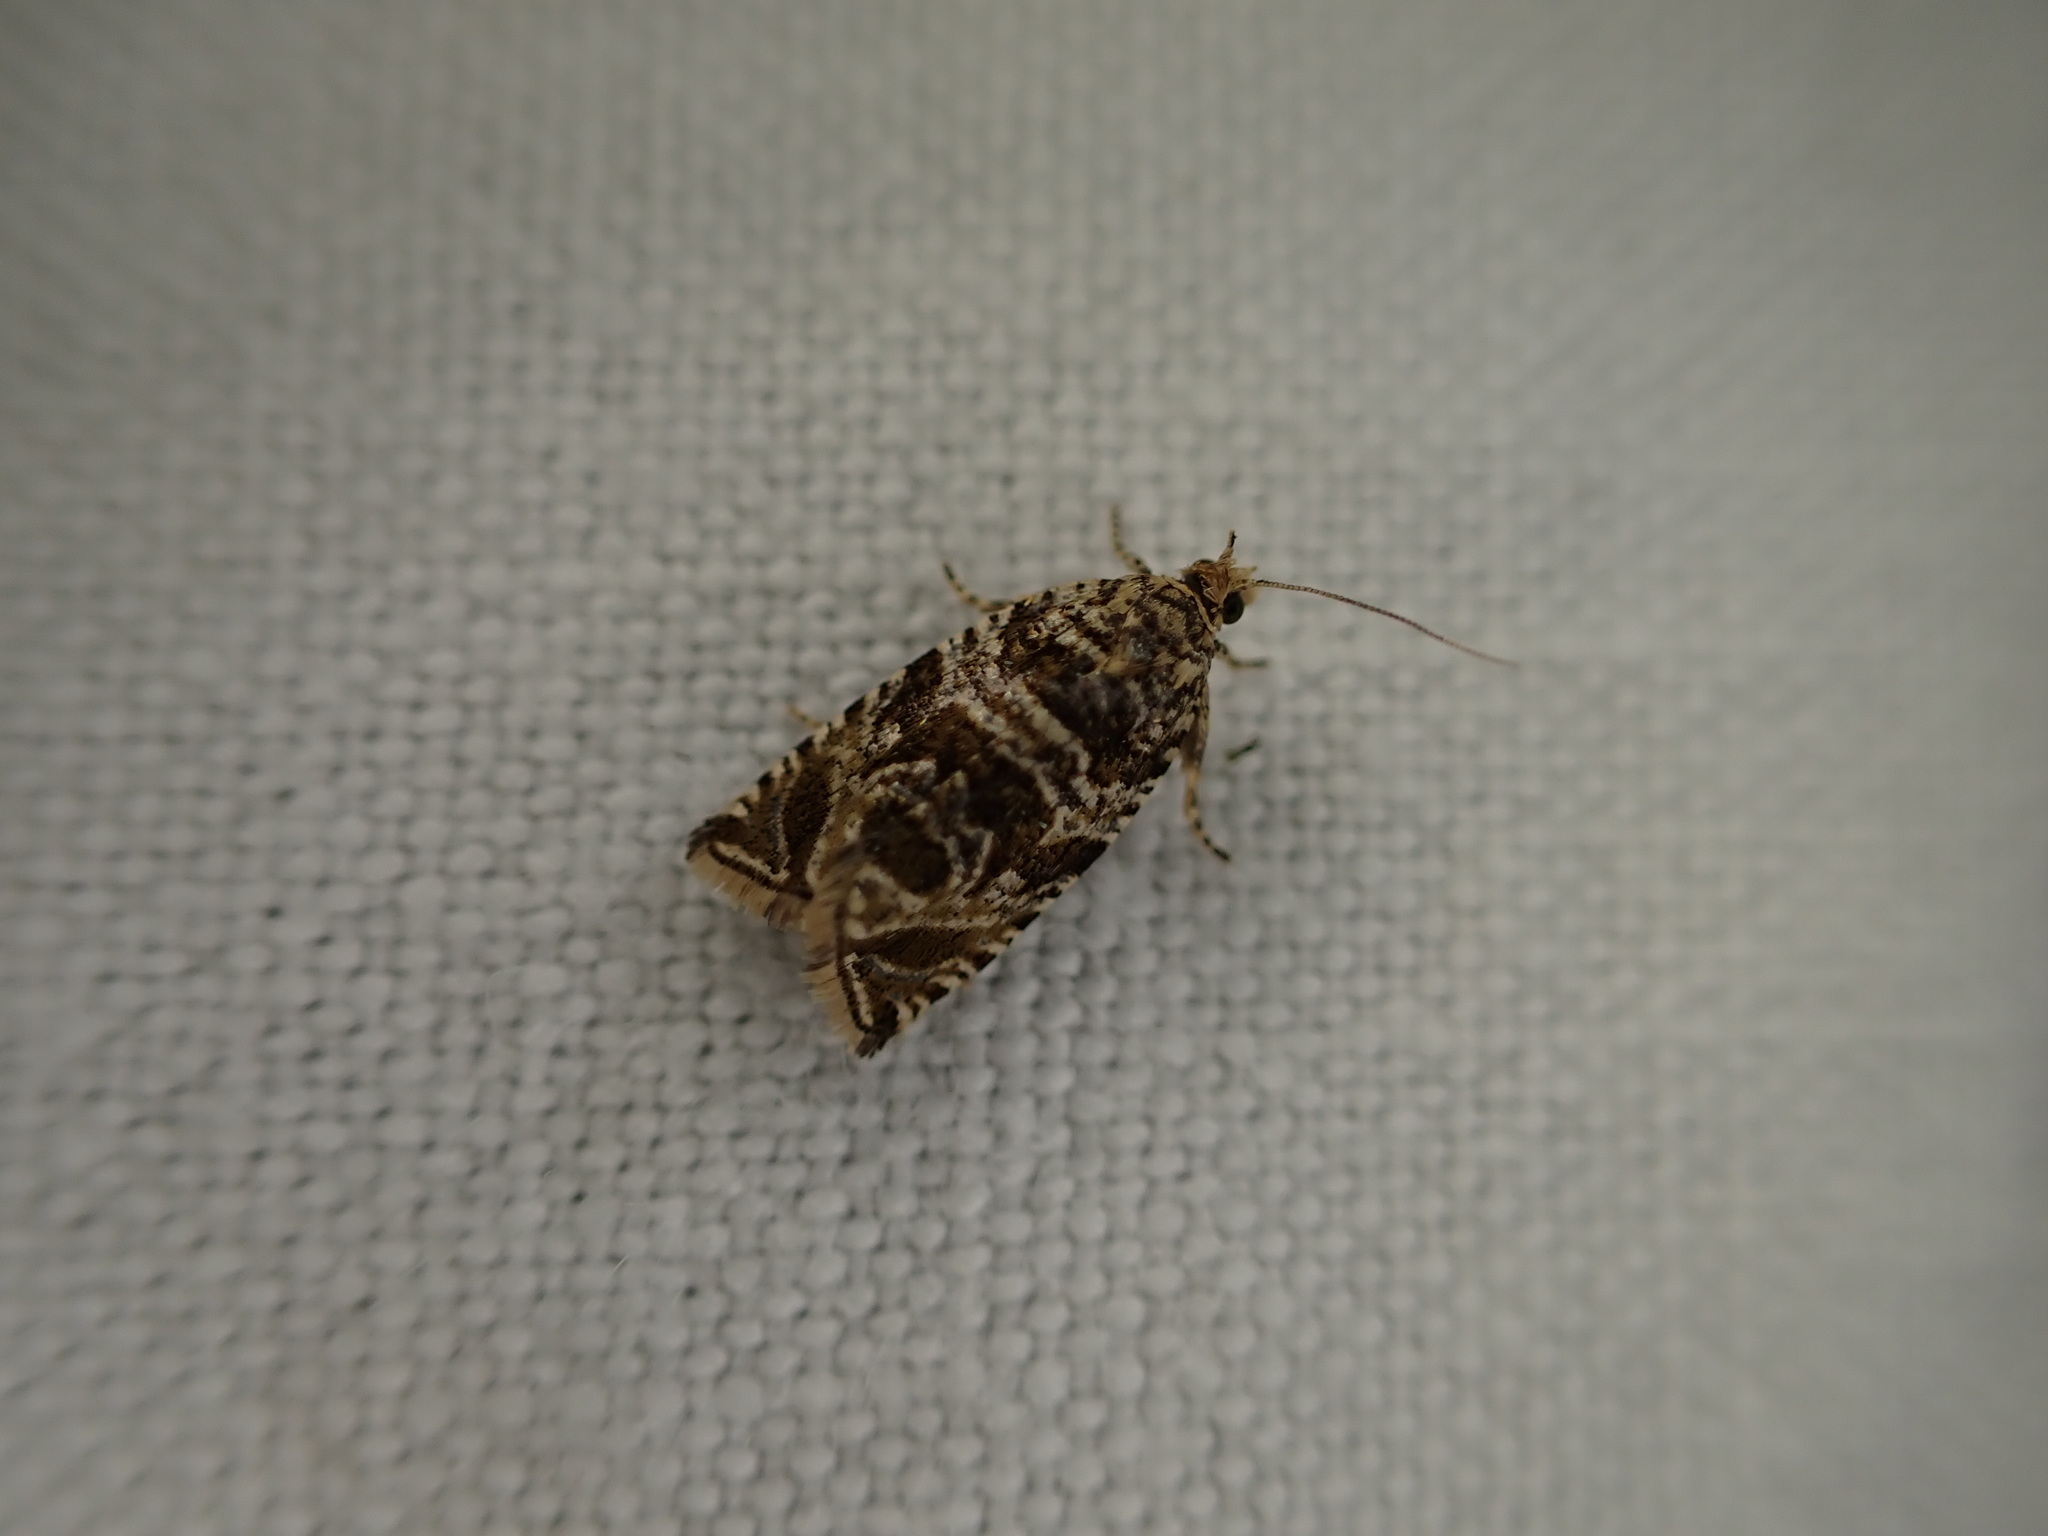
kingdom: Animalia
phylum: Arthropoda
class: Insecta
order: Lepidoptera
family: Tortricidae
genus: Syricoris
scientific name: Syricoris rivulana
